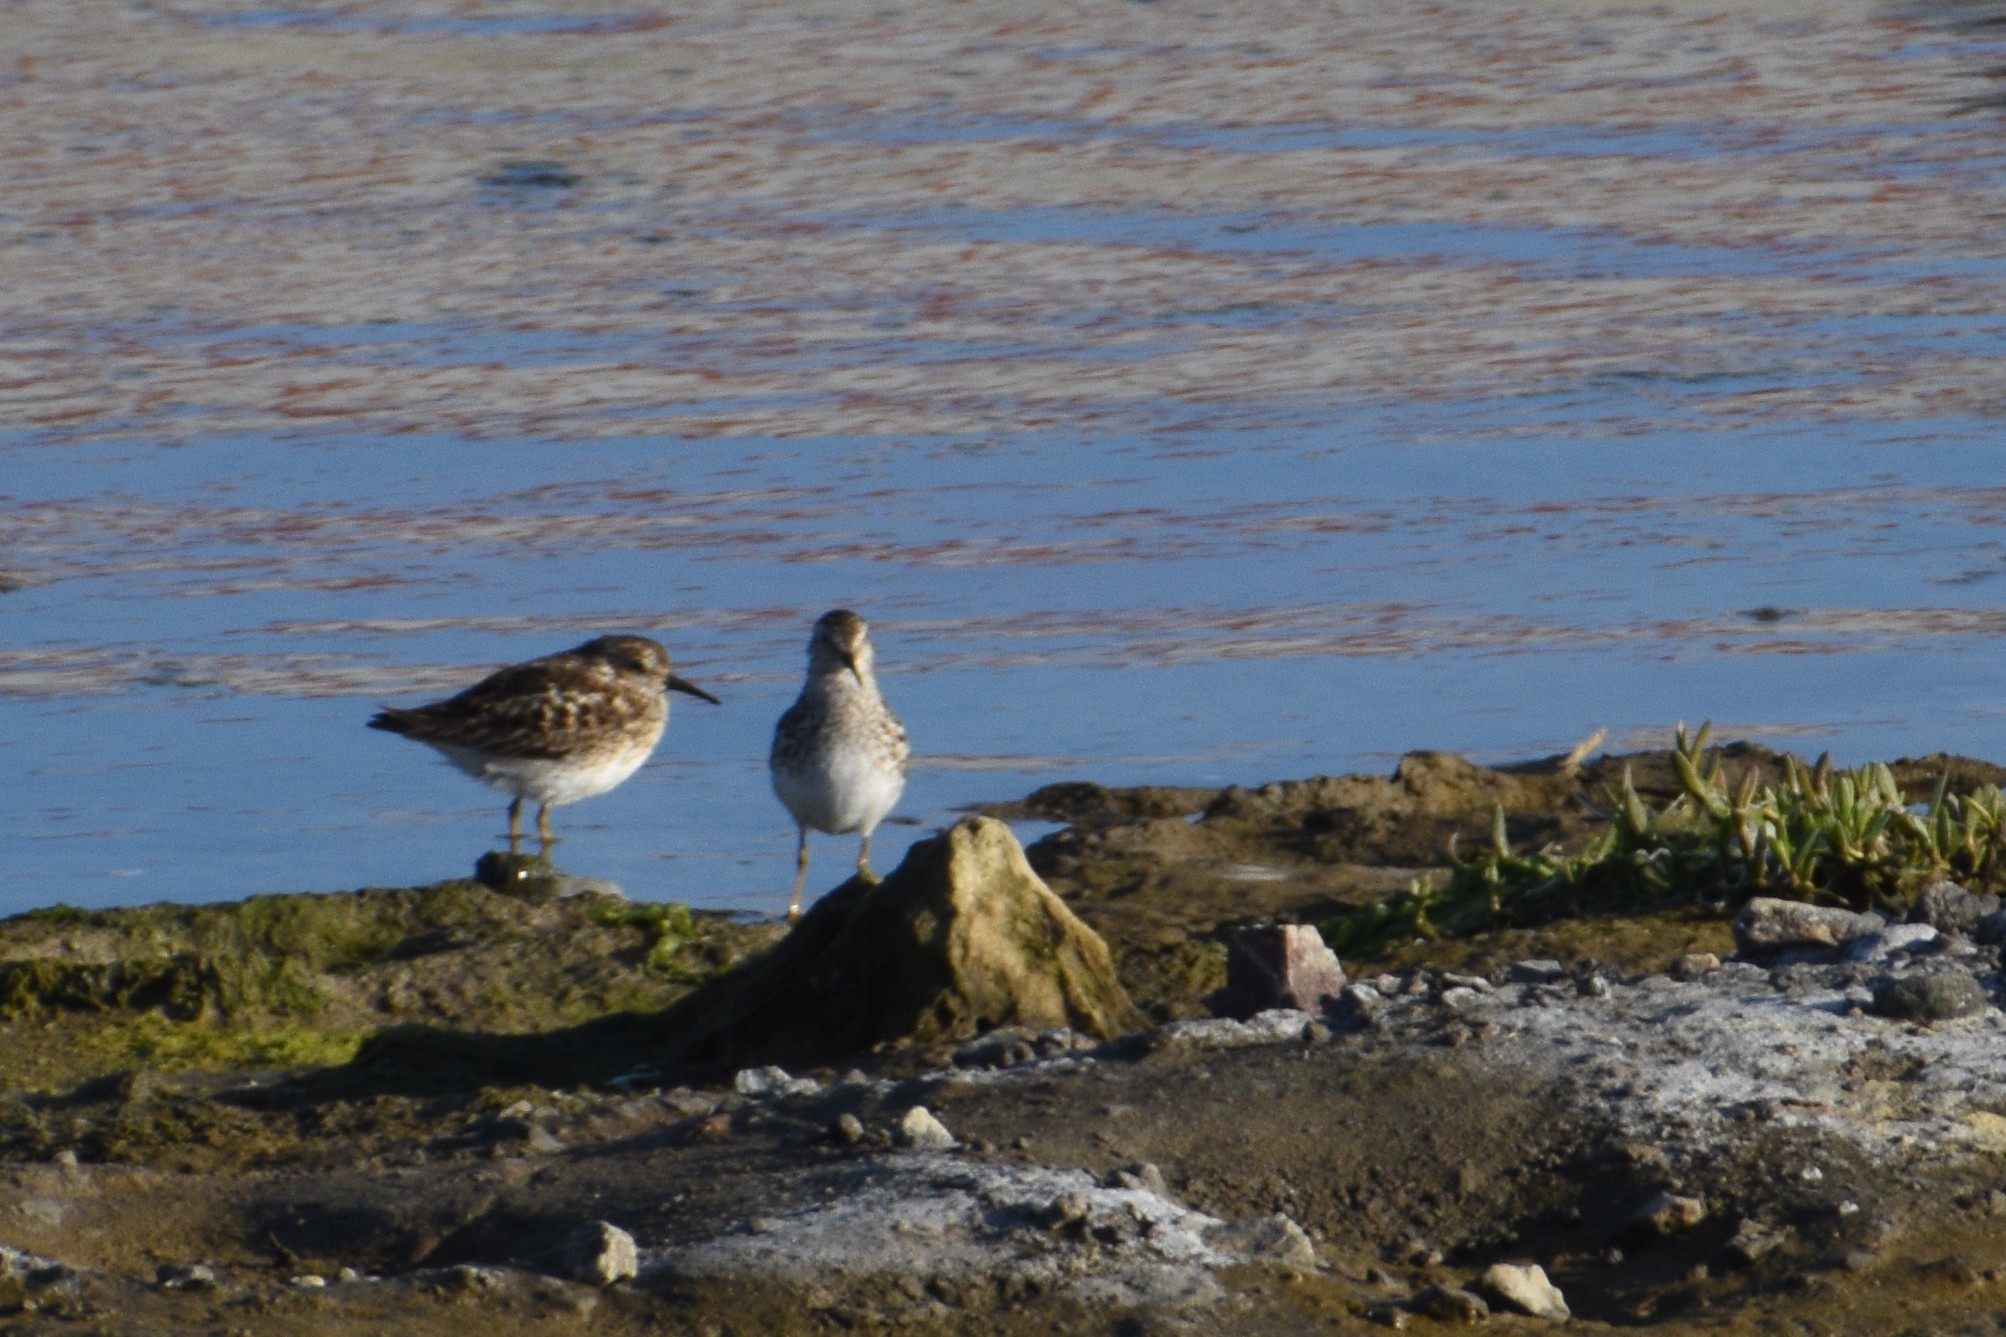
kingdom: Animalia
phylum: Chordata
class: Aves
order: Charadriiformes
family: Scolopacidae
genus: Calidris
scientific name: Calidris minutilla
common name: Least sandpiper
